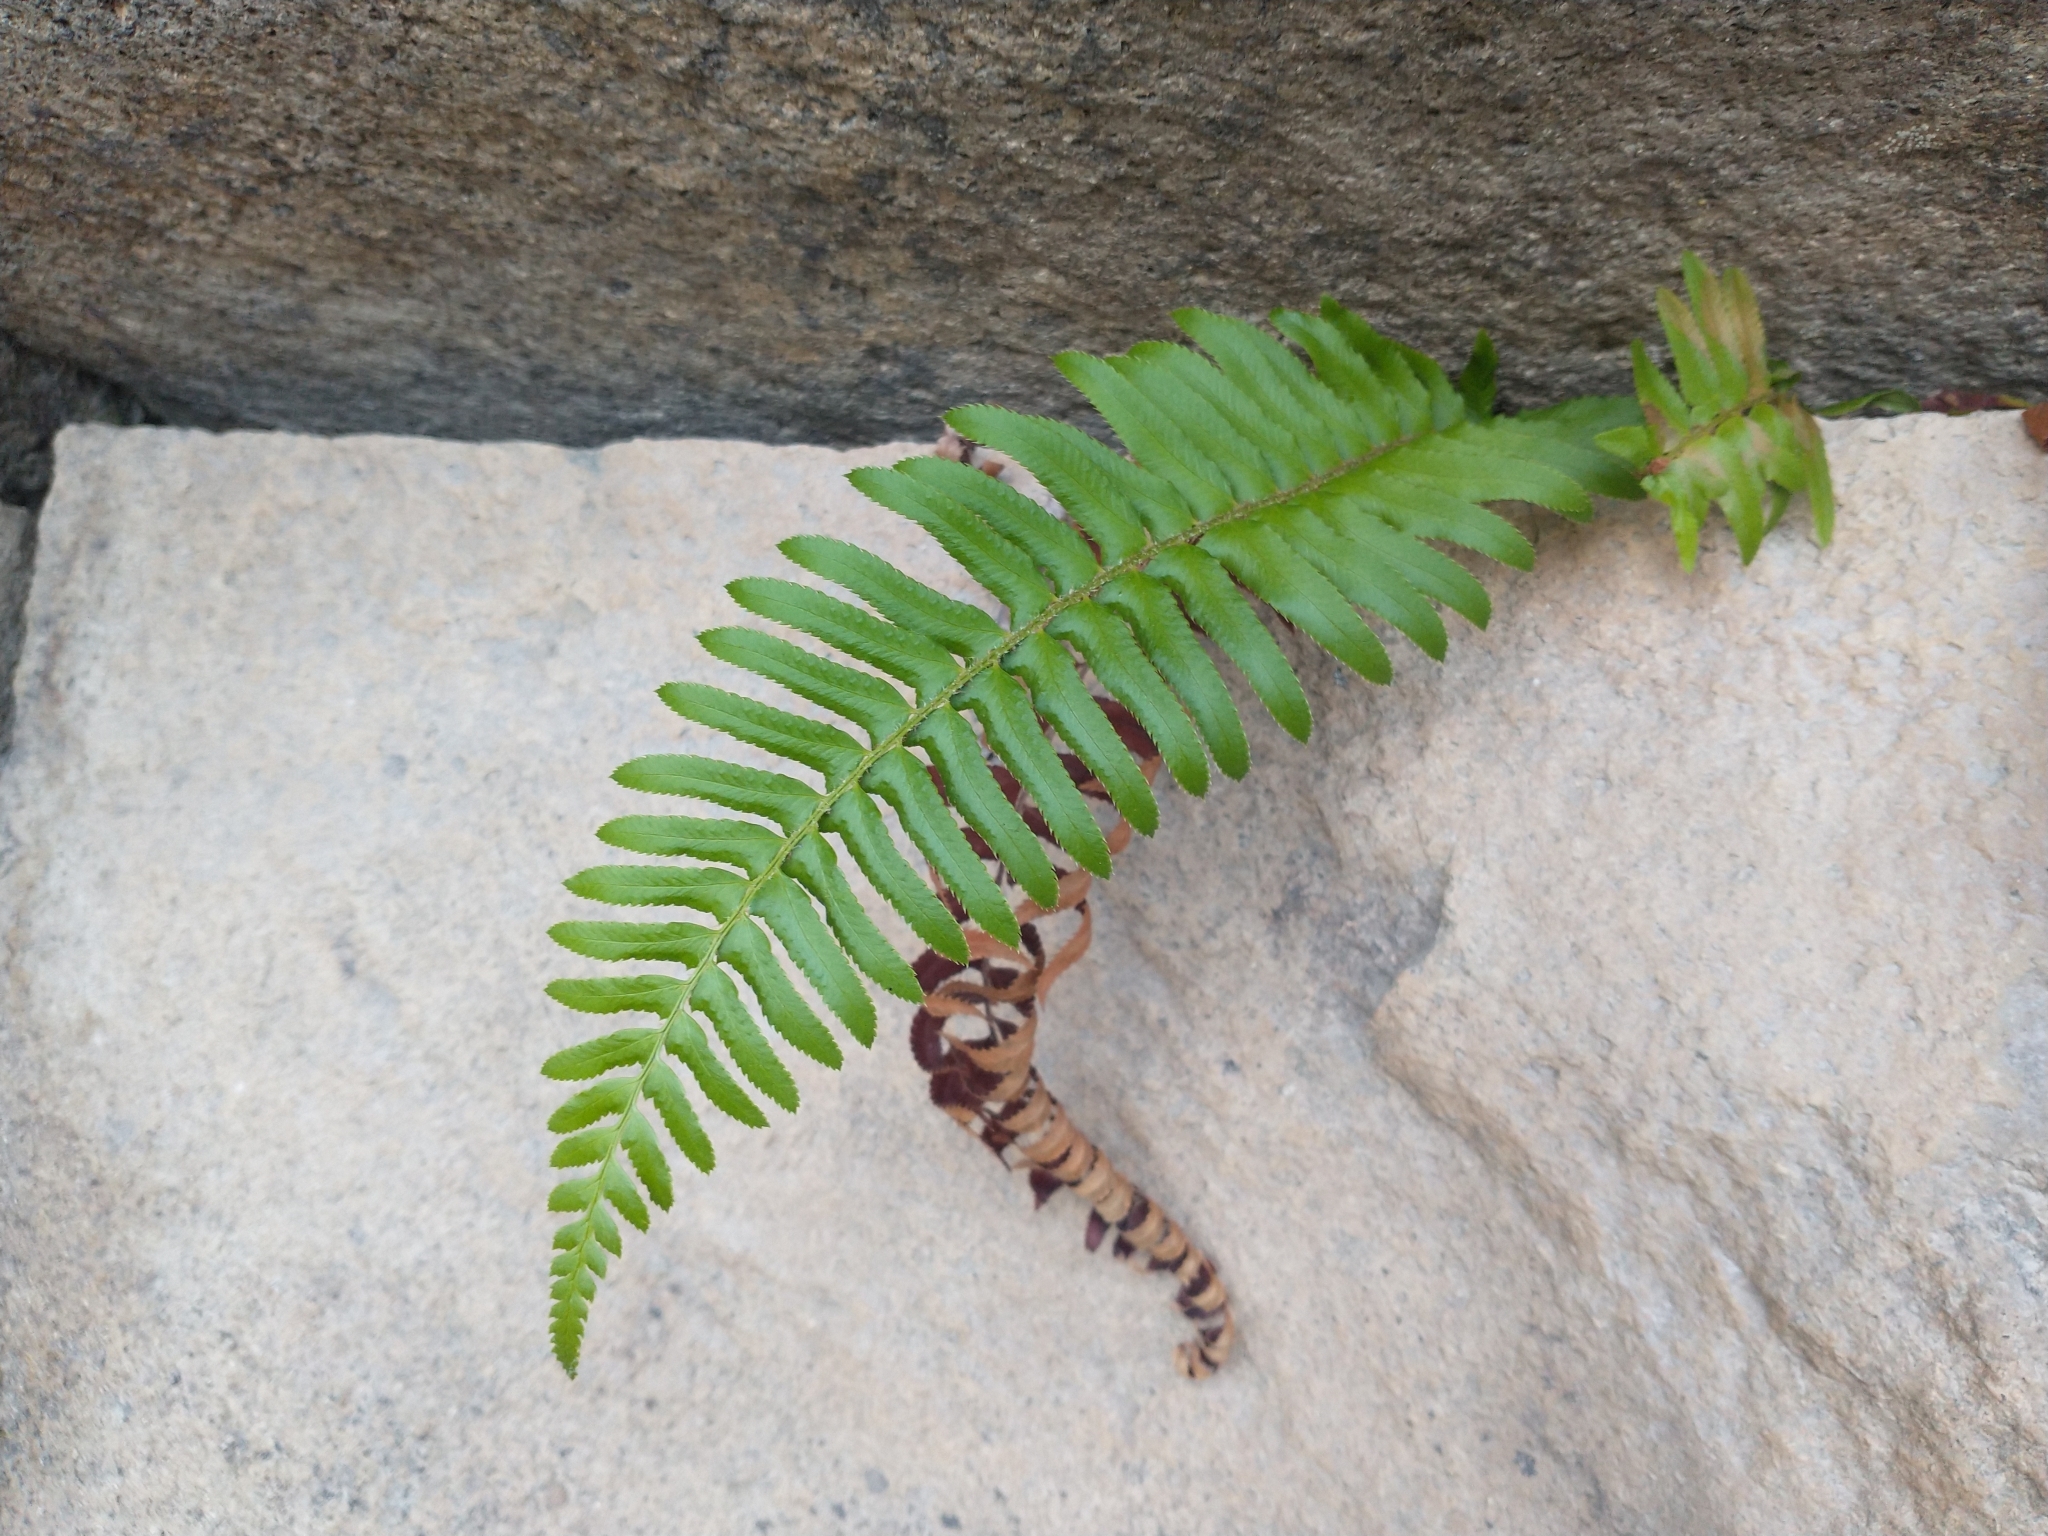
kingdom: Plantae
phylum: Tracheophyta
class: Polypodiopsida
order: Polypodiales
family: Dryopteridaceae
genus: Polystichum
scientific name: Polystichum munitum
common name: Western sword-fern
